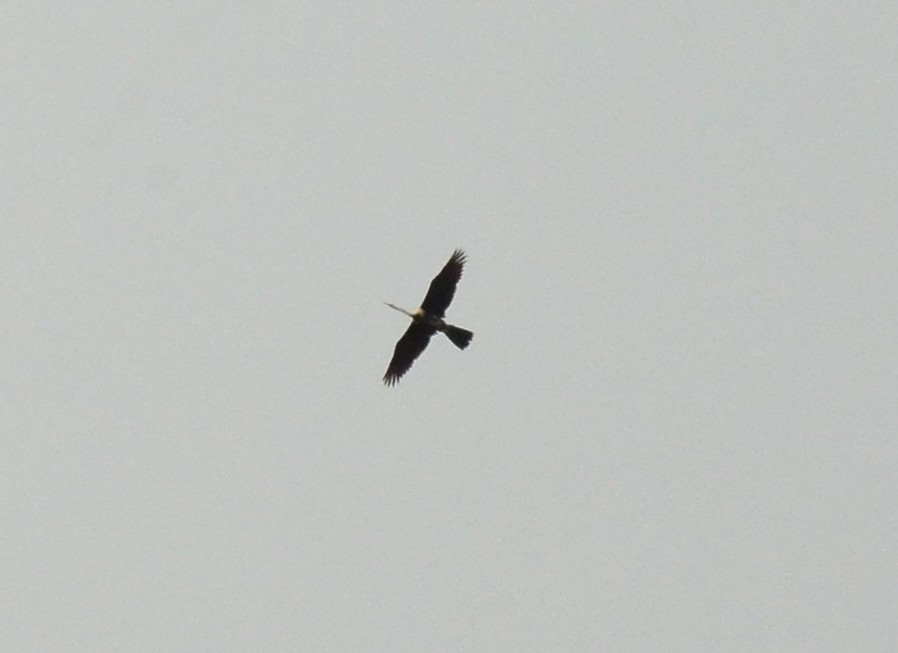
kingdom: Animalia
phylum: Chordata
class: Aves
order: Suliformes
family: Anhingidae
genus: Anhinga
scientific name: Anhinga melanogaster
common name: Oriental darter
